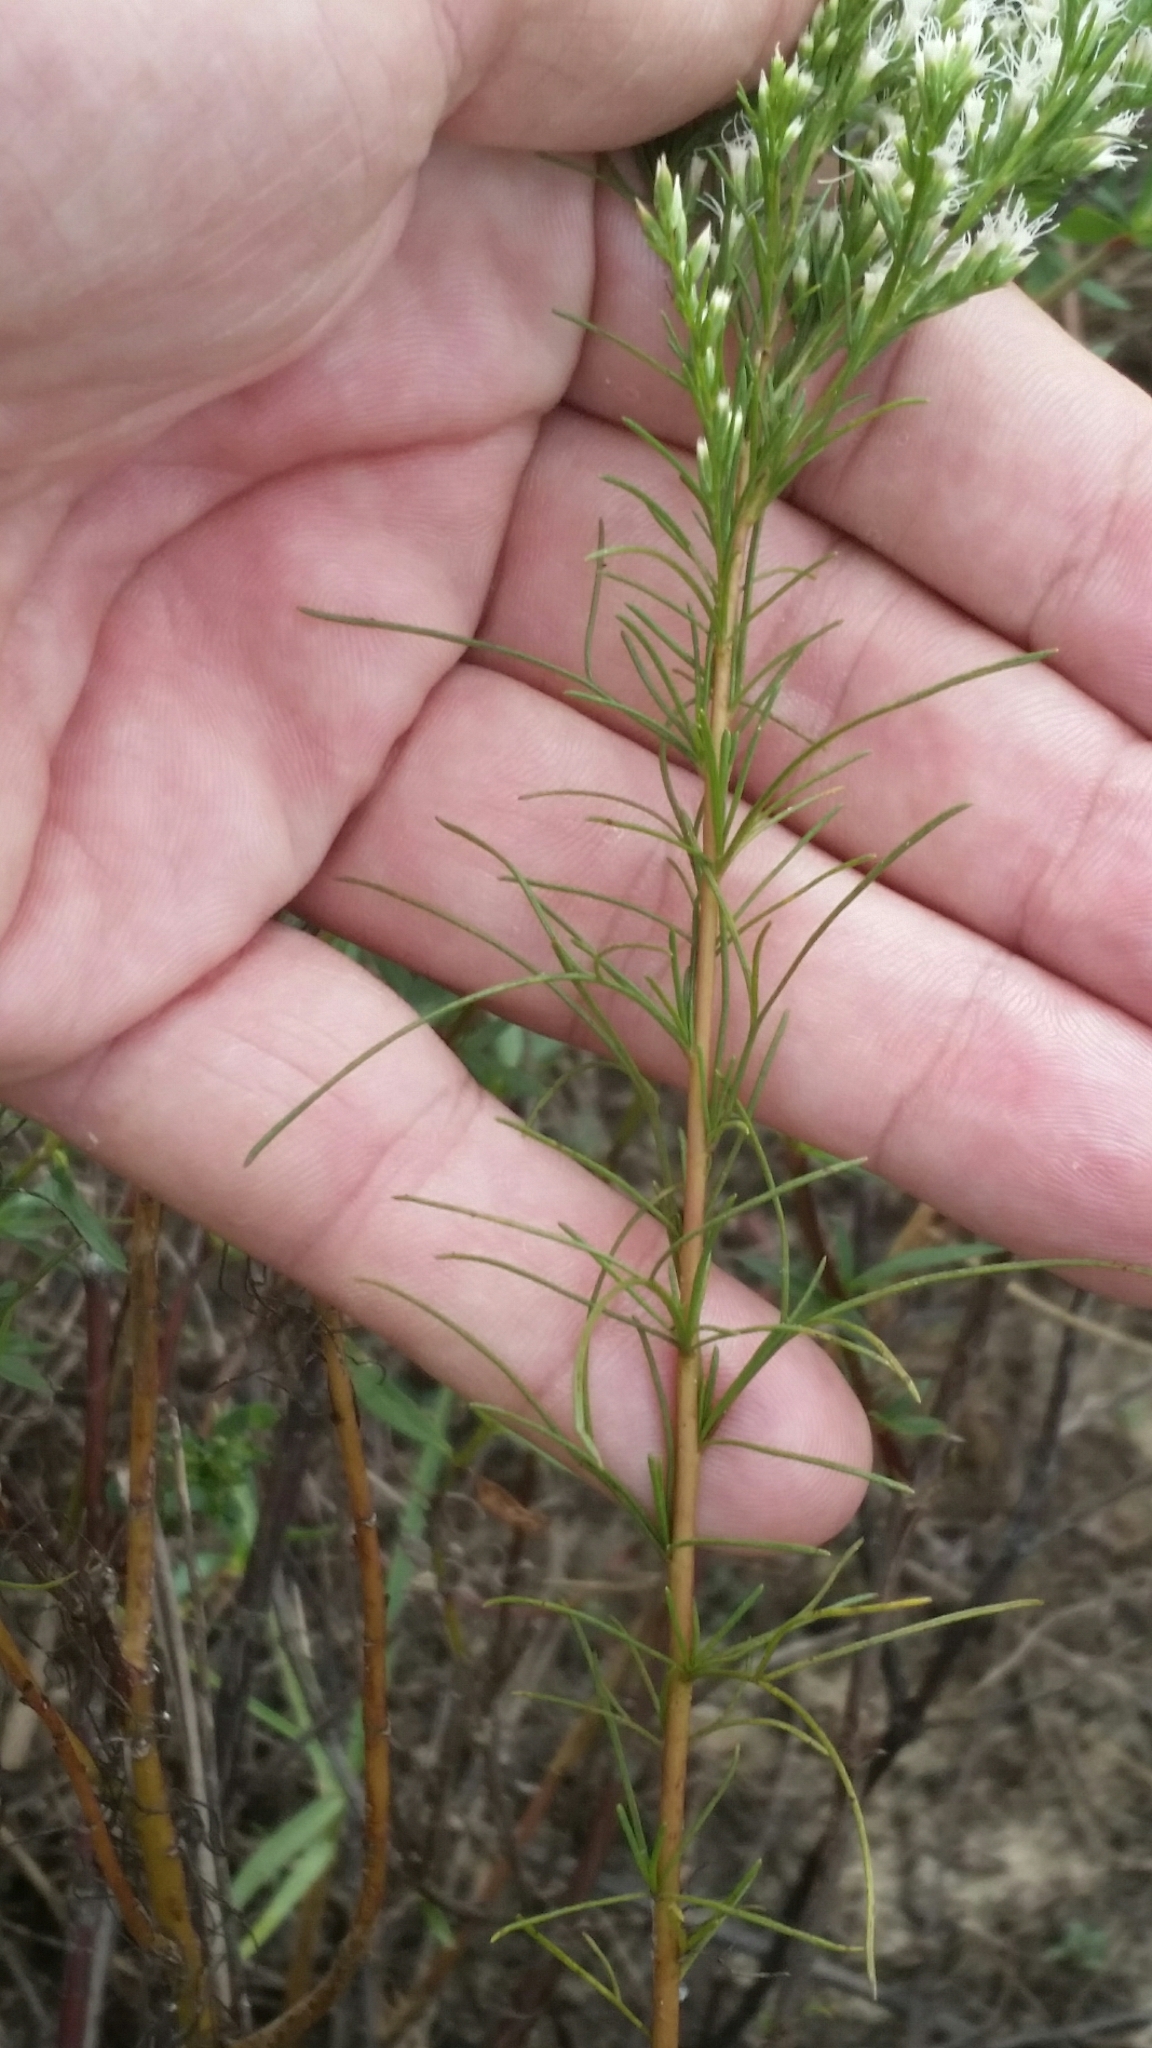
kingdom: Plantae
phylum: Tracheophyta
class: Magnoliopsida
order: Asterales
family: Asteraceae
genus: Eupatorium
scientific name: Eupatorium leptophyllum
